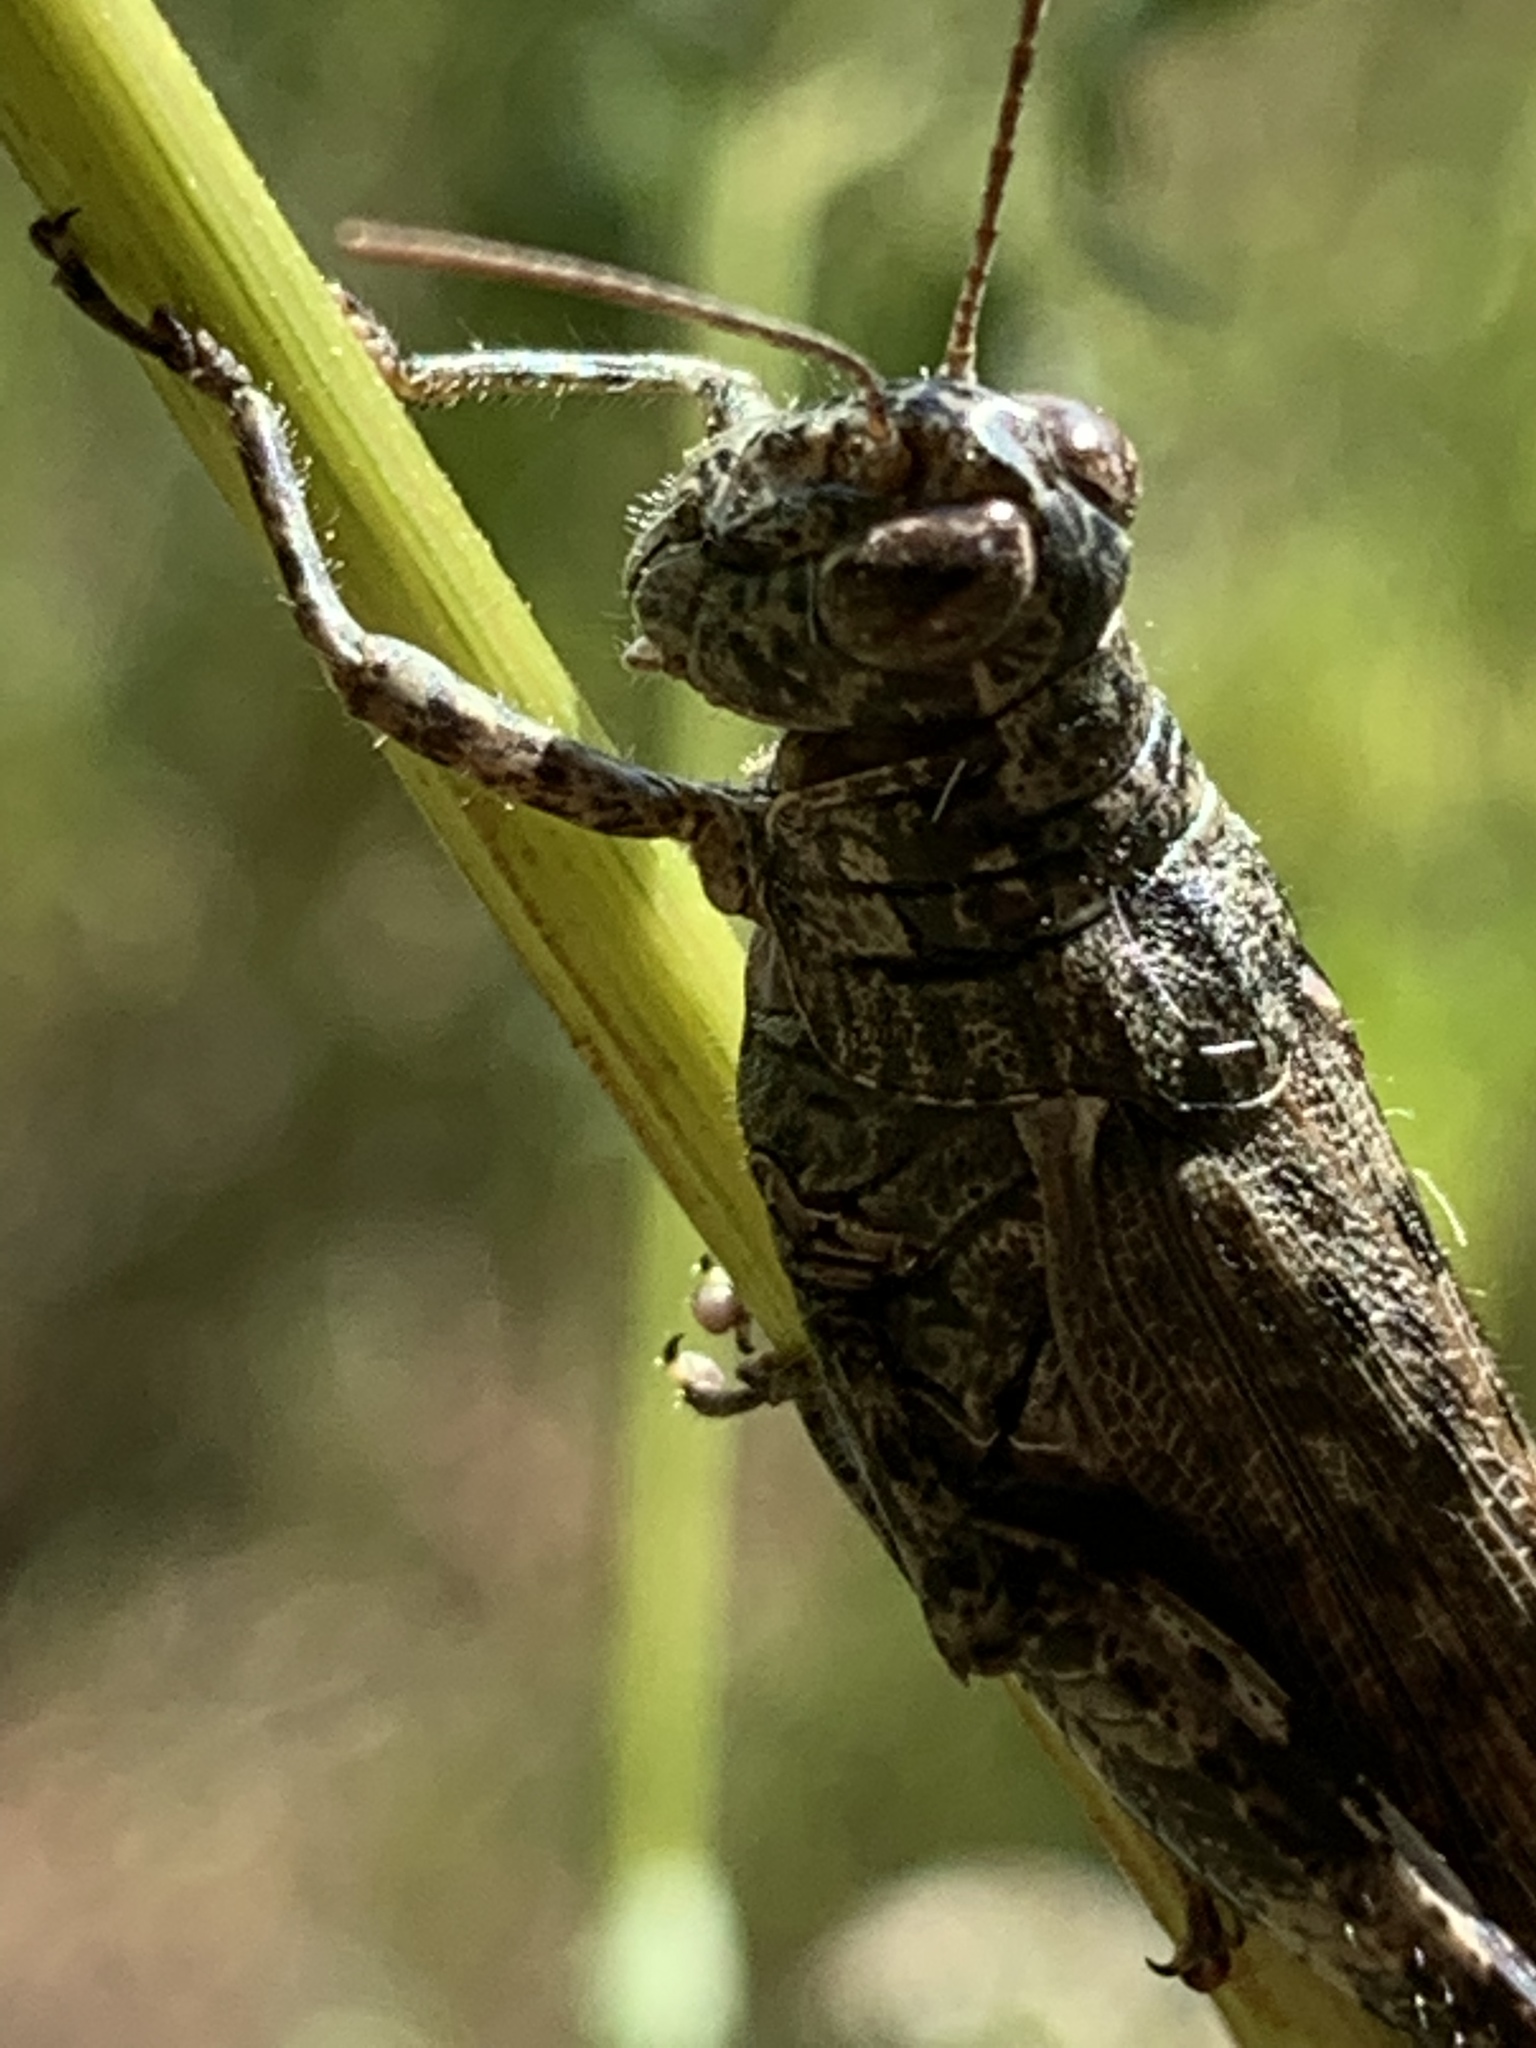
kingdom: Animalia
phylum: Arthropoda
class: Insecta
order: Orthoptera
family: Acrididae
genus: Melanoplus
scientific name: Melanoplus punctulatus
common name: Pine-tree spur-throat grasshopper
